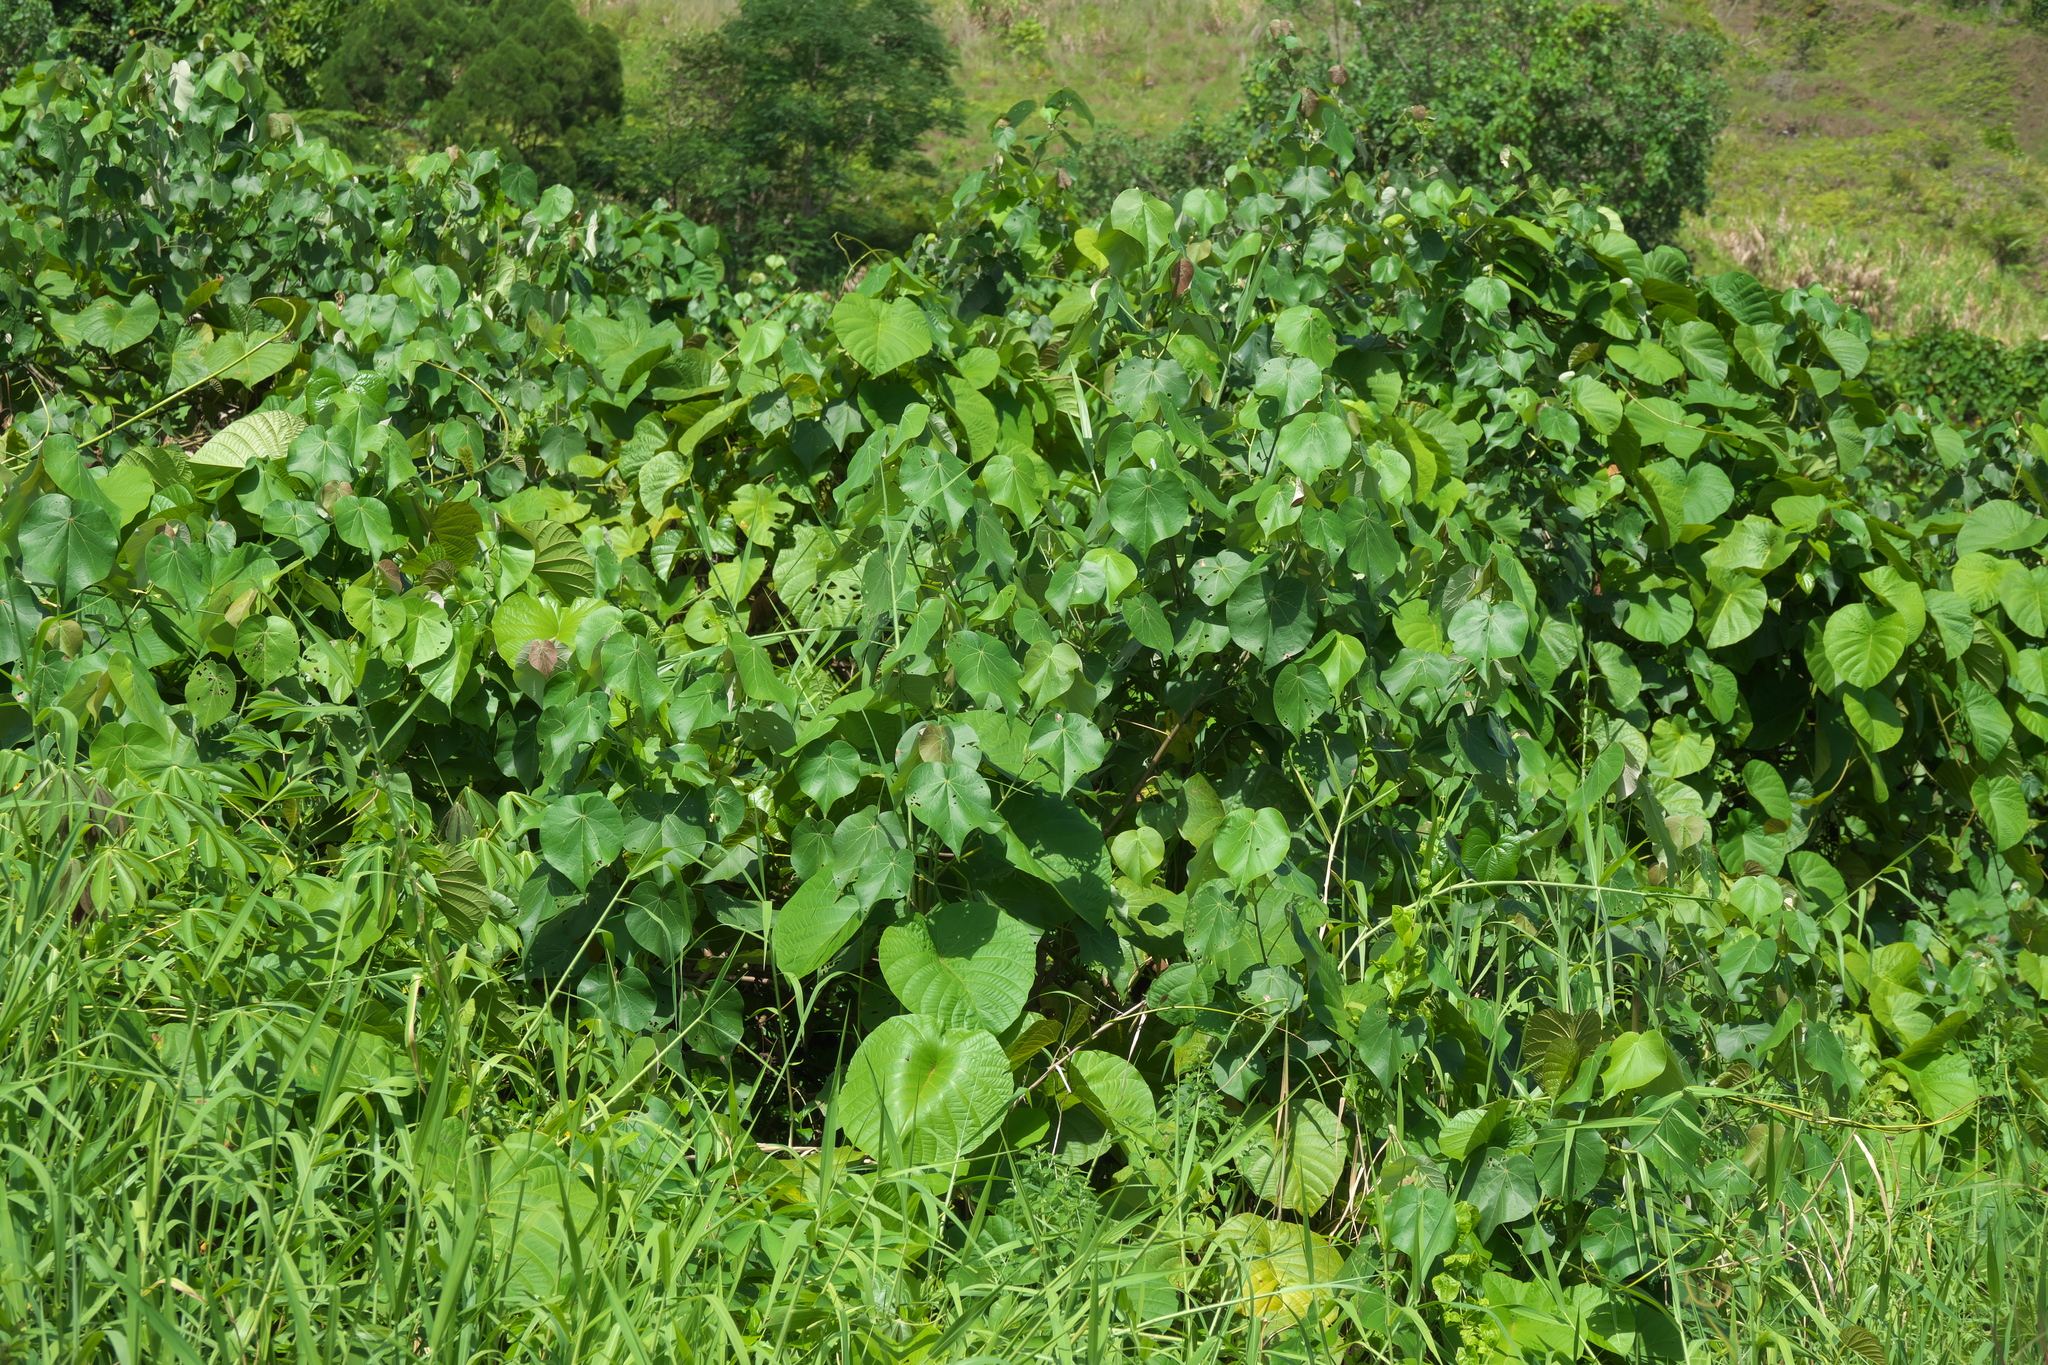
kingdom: Plantae
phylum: Tracheophyta
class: Magnoliopsida
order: Malvales
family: Malvaceae
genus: Talipariti
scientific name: Talipariti tiliaceum
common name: Sea hibiscus
